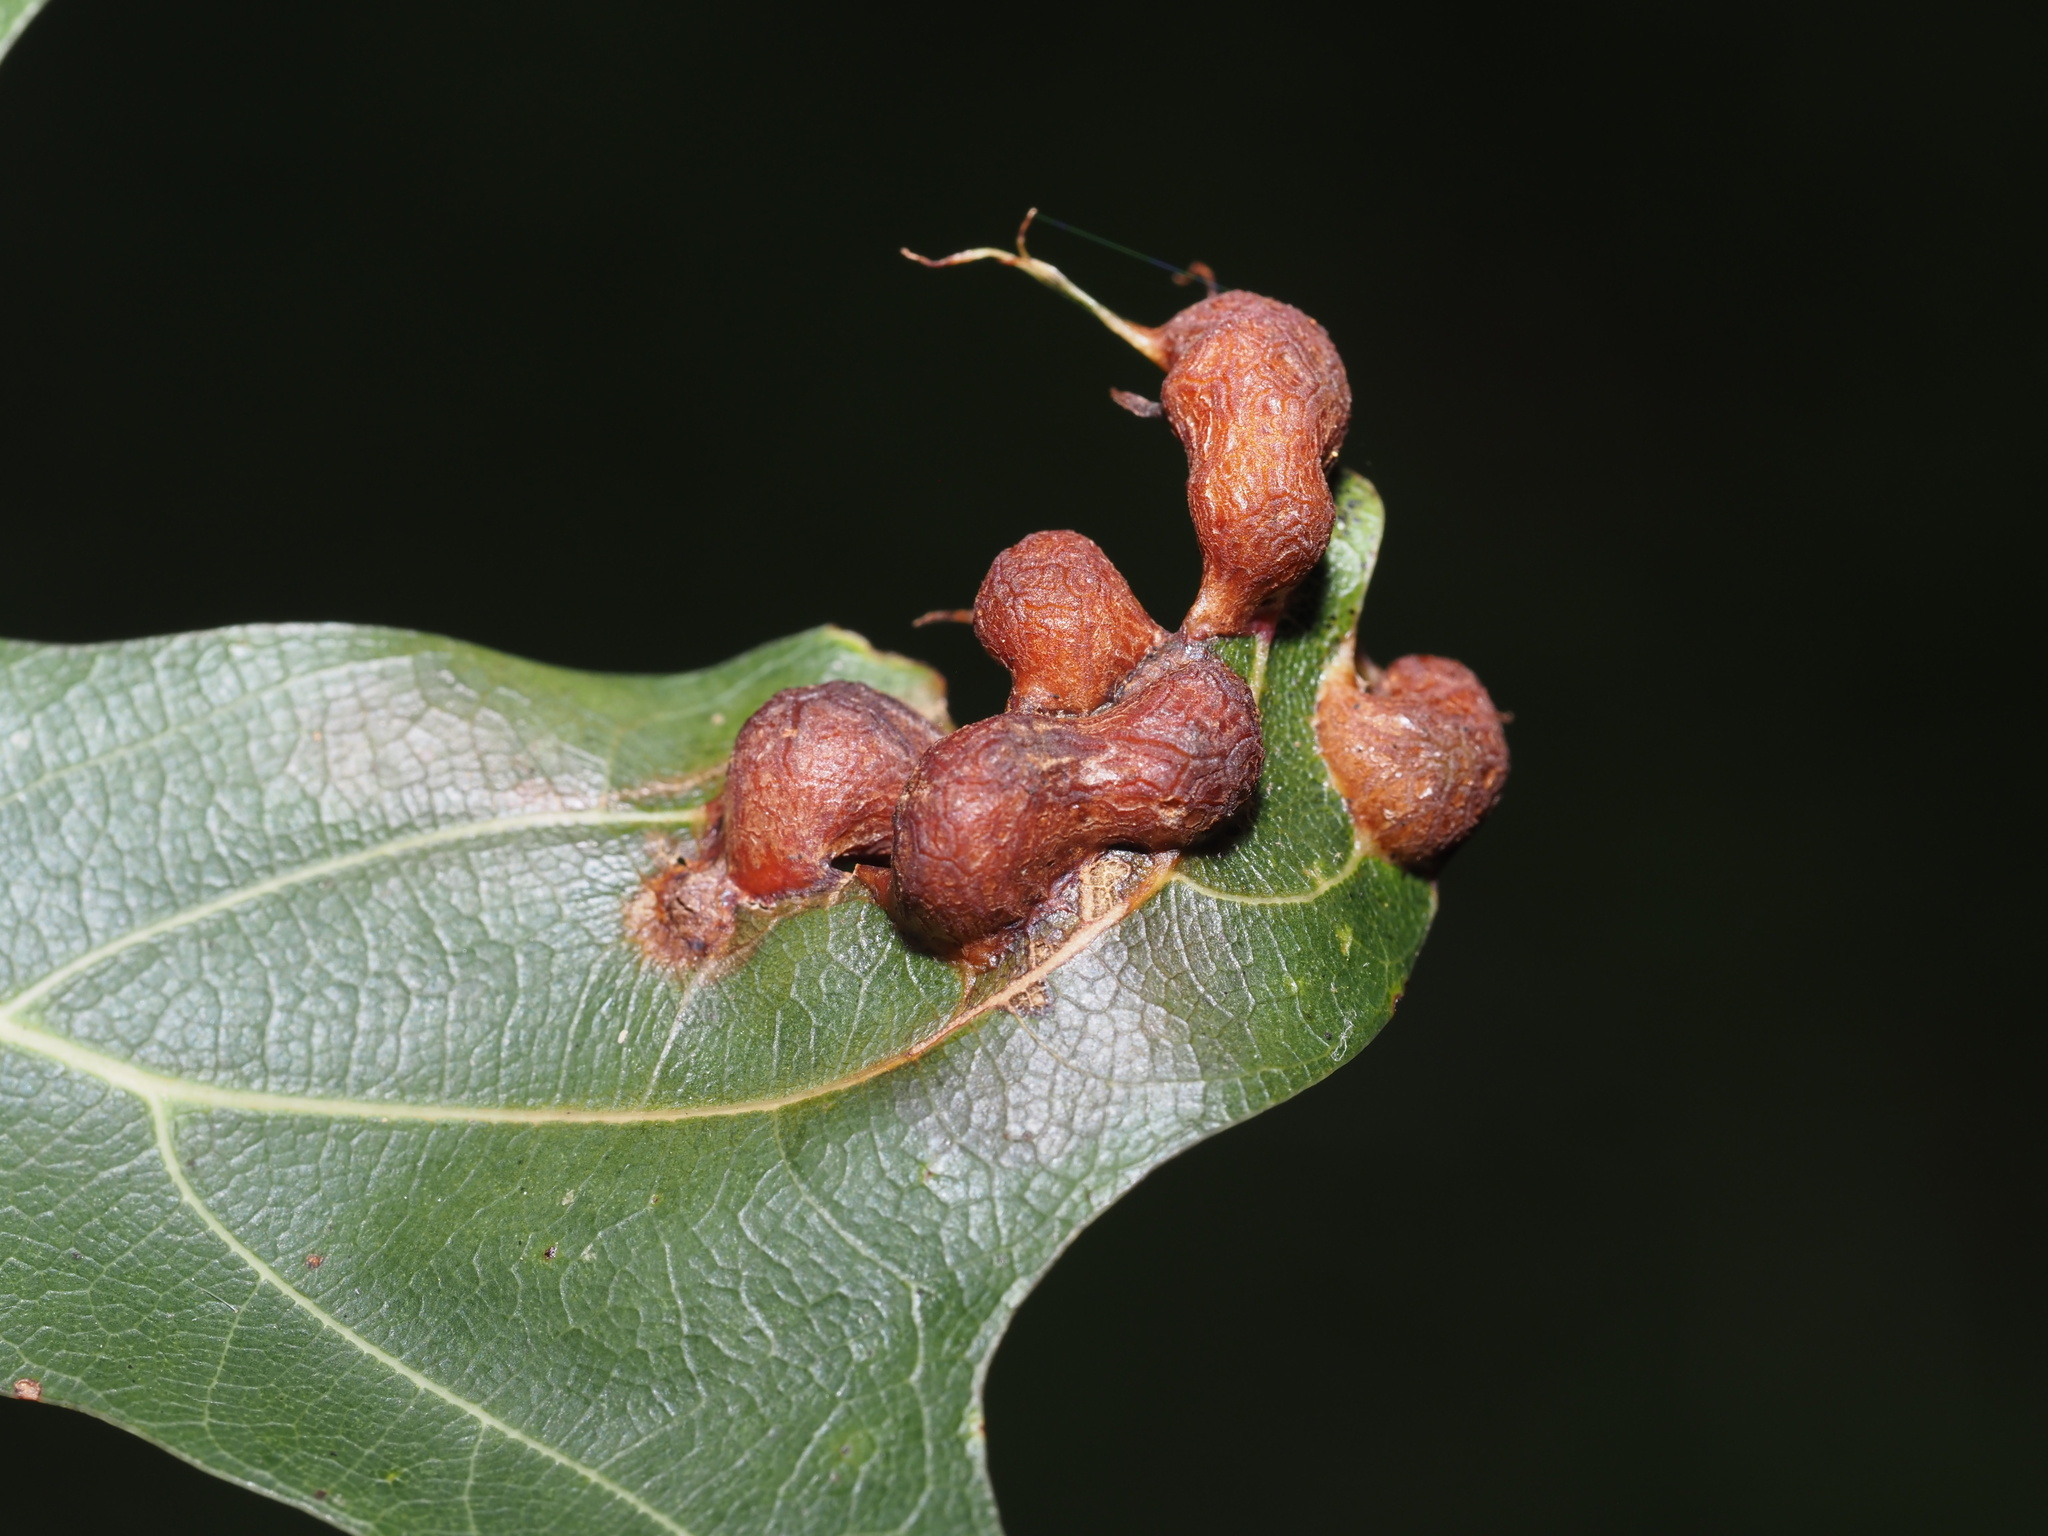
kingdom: Animalia
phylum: Arthropoda
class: Insecta
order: Diptera
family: Cecidomyiidae
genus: Polystepha
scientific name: Polystepha pilulae
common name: Oak leaf gall midge
